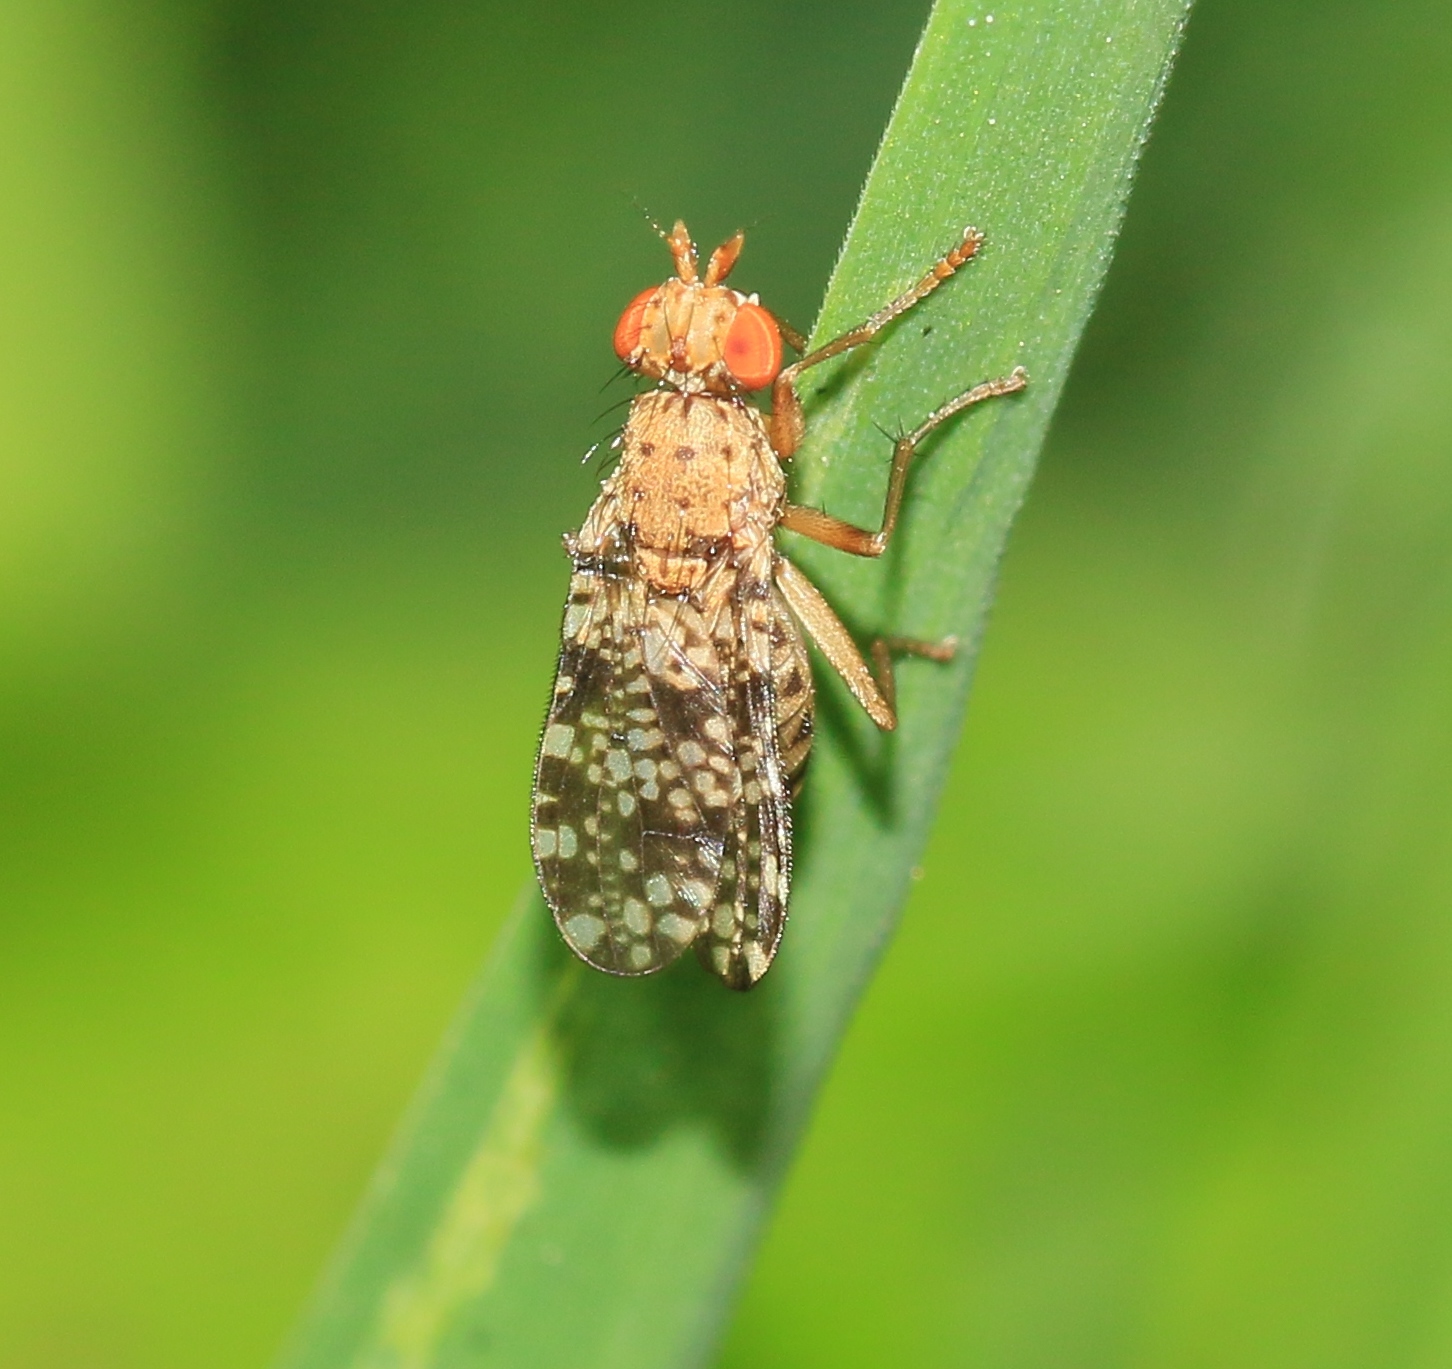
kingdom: Animalia
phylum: Arthropoda
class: Insecta
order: Diptera
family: Sciomyzidae
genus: Trypetoptera
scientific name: Trypetoptera punctulata
